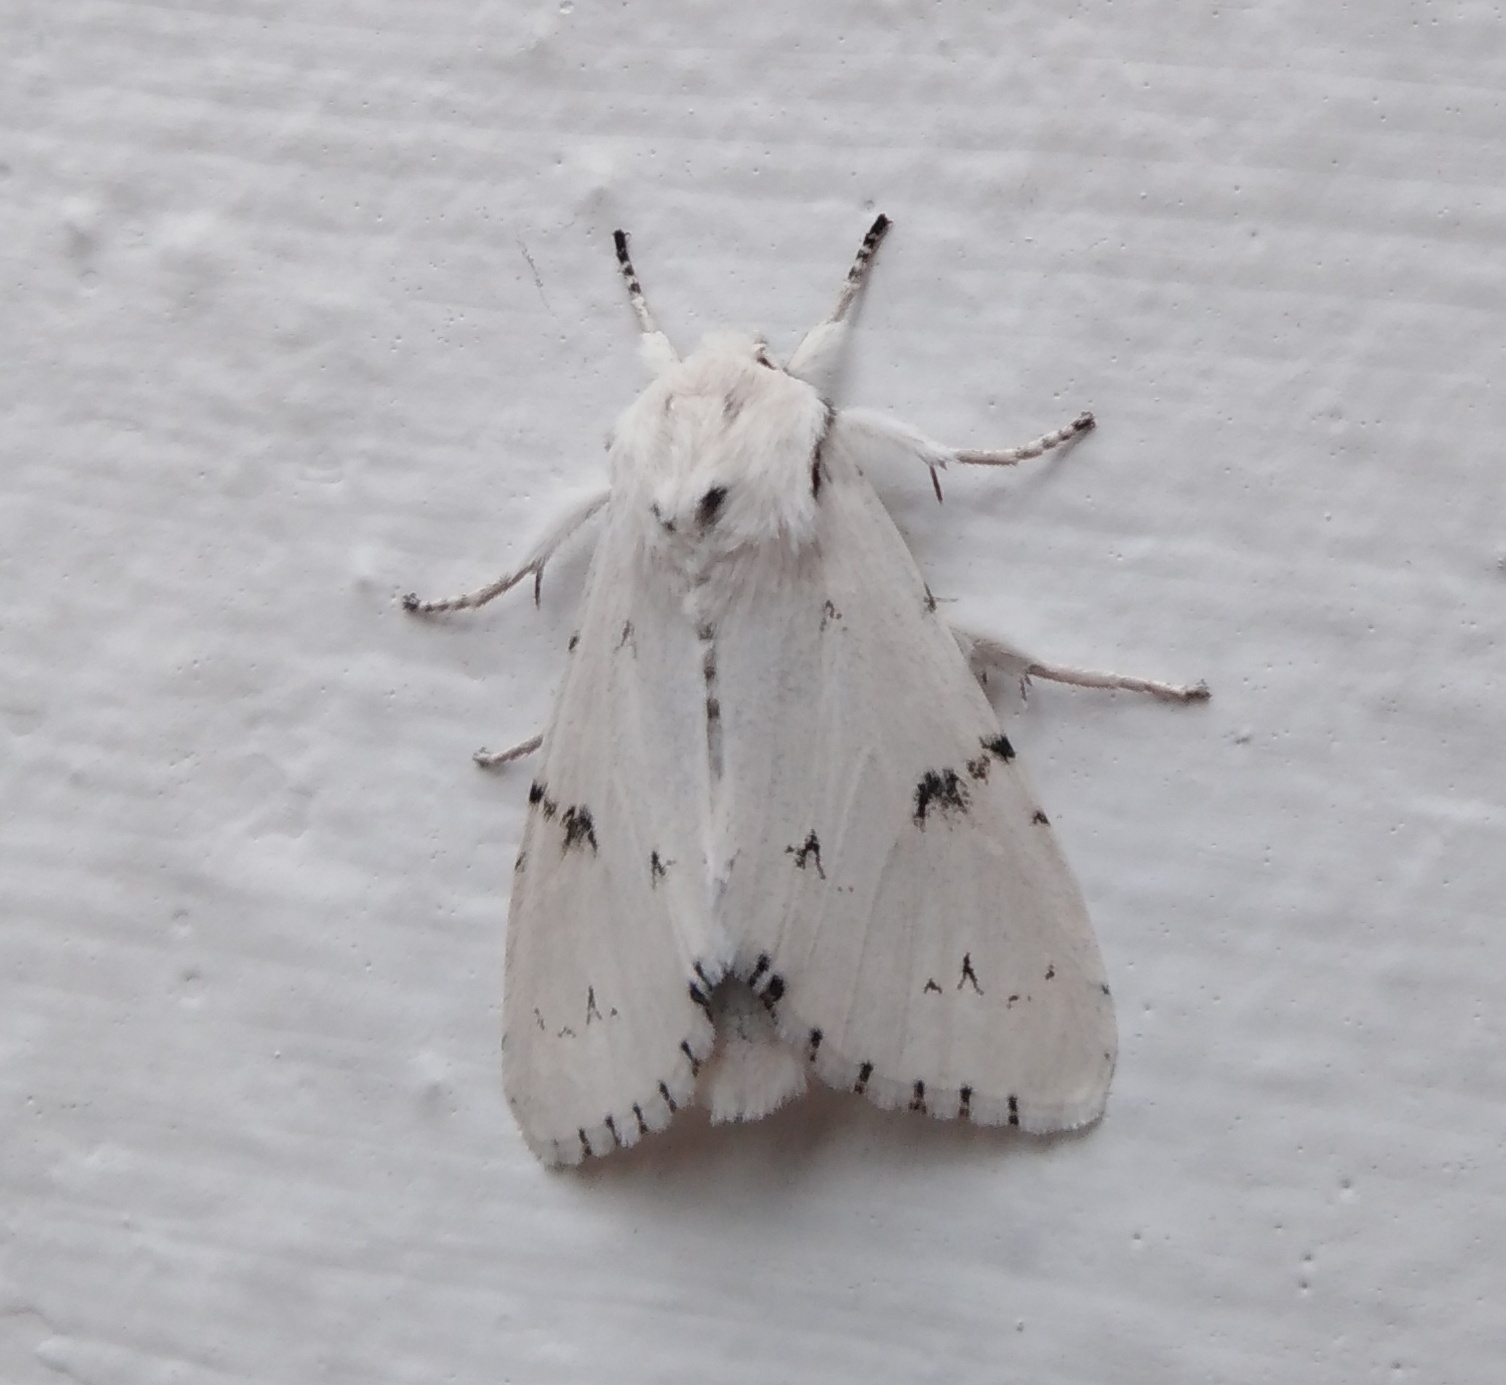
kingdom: Animalia
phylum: Arthropoda
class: Insecta
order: Lepidoptera
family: Noctuidae
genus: Acronicta
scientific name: Acronicta leporina
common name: Miller
